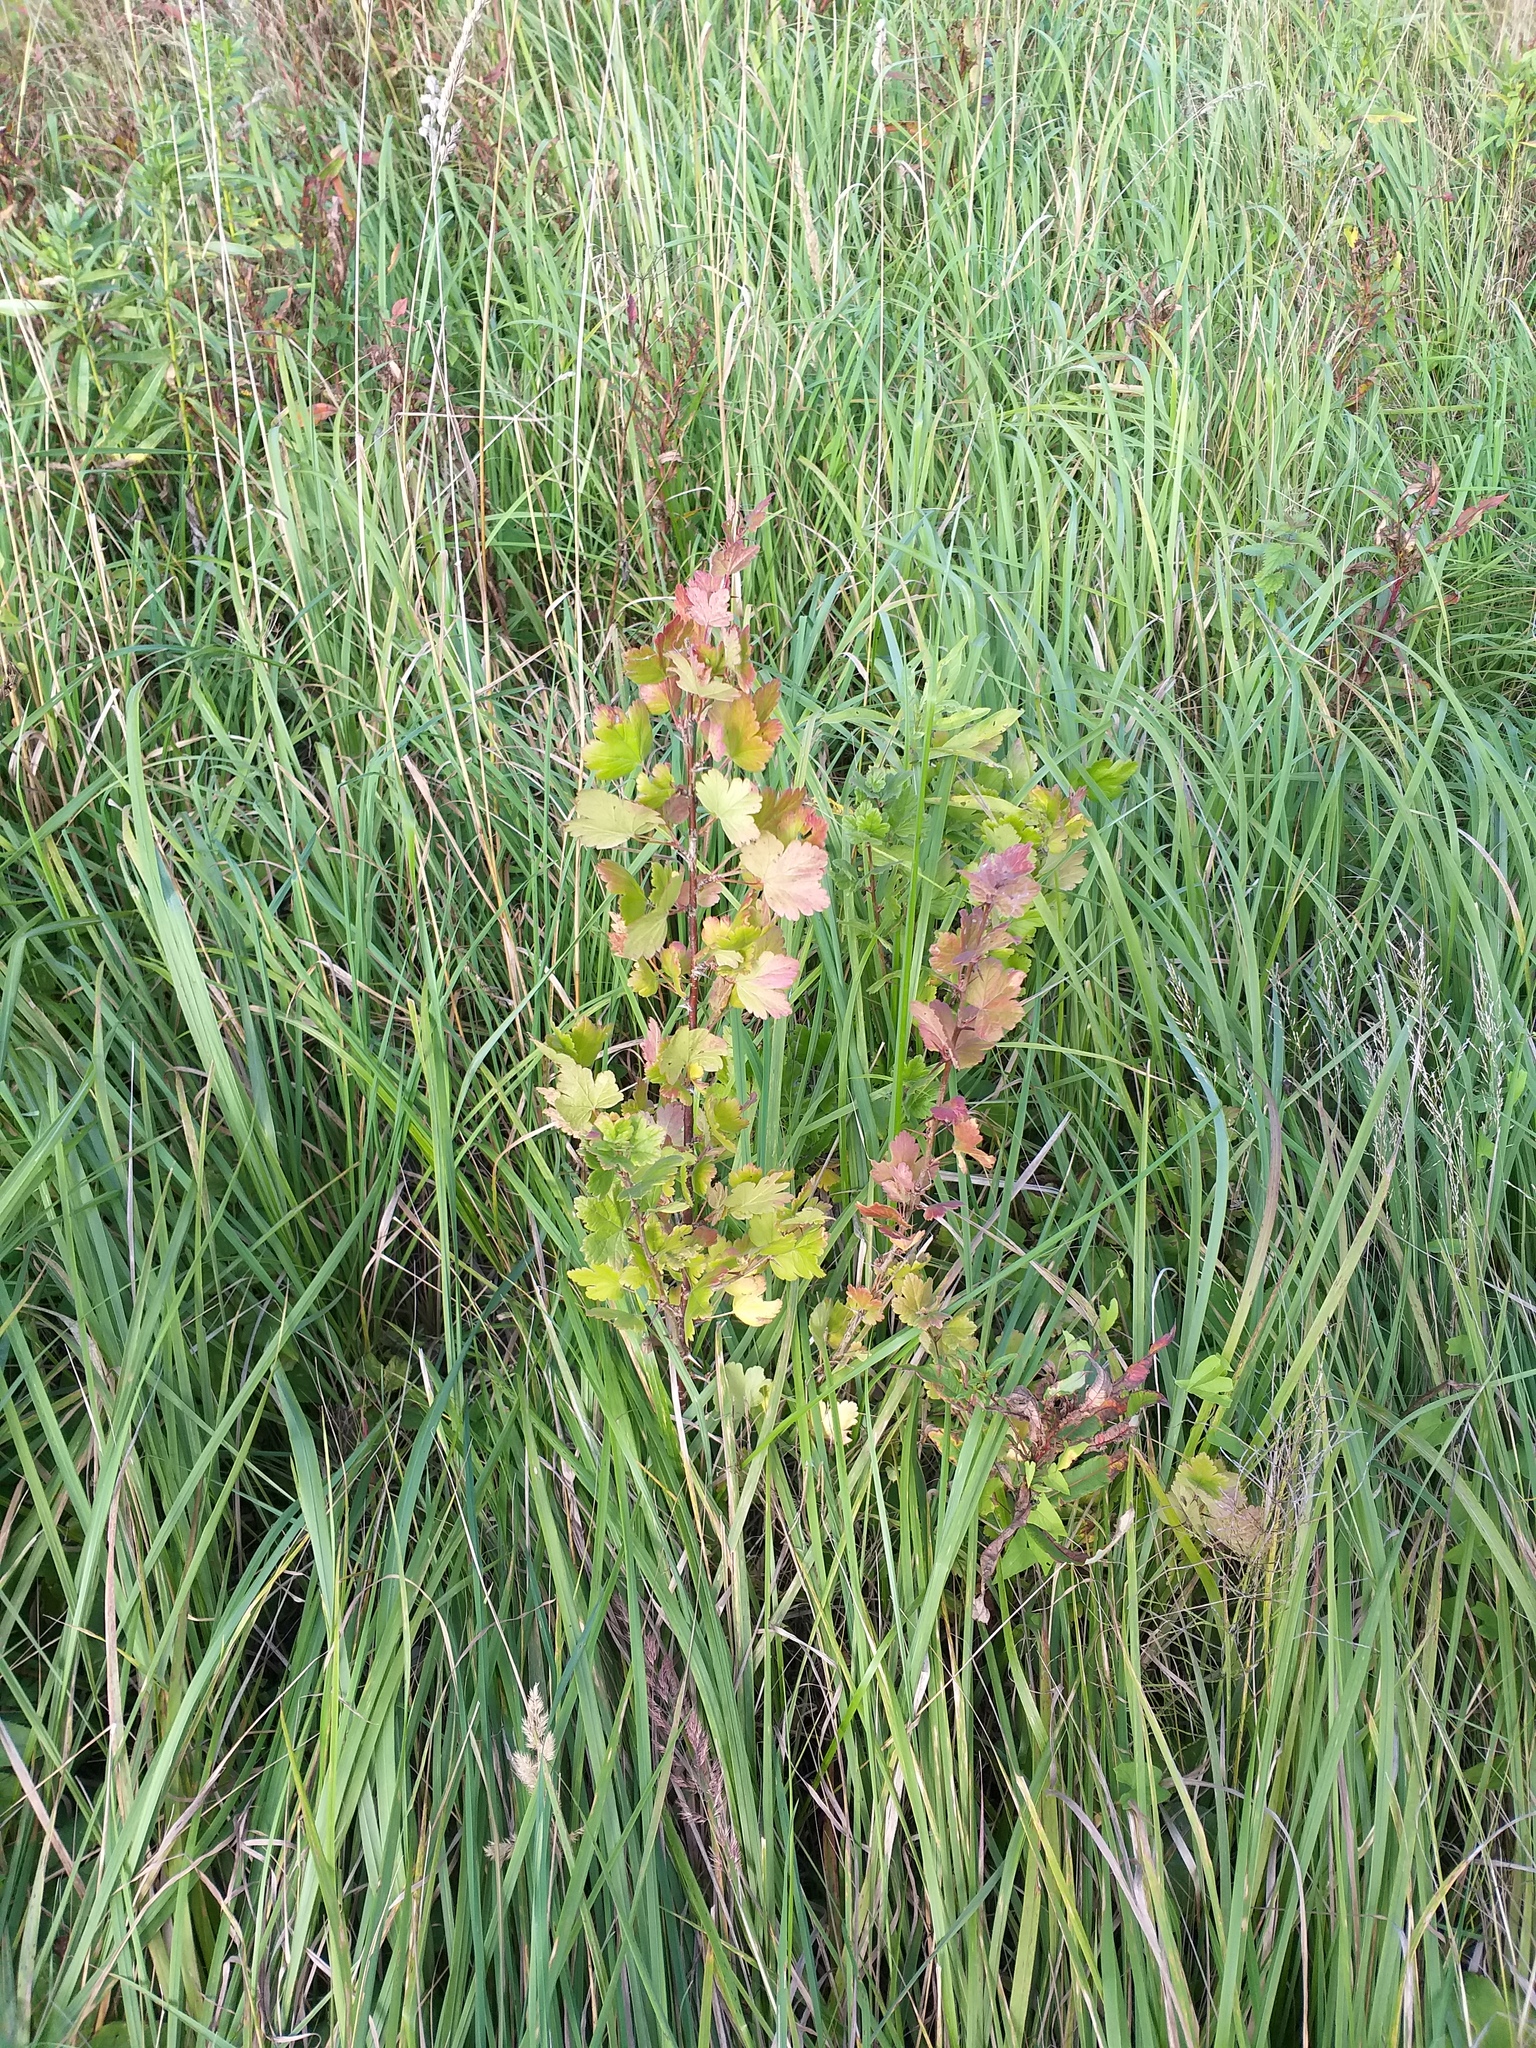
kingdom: Plantae
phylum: Tracheophyta
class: Magnoliopsida
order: Saxifragales
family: Grossulariaceae
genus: Ribes
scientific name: Ribes uva-crispa
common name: Gooseberry
